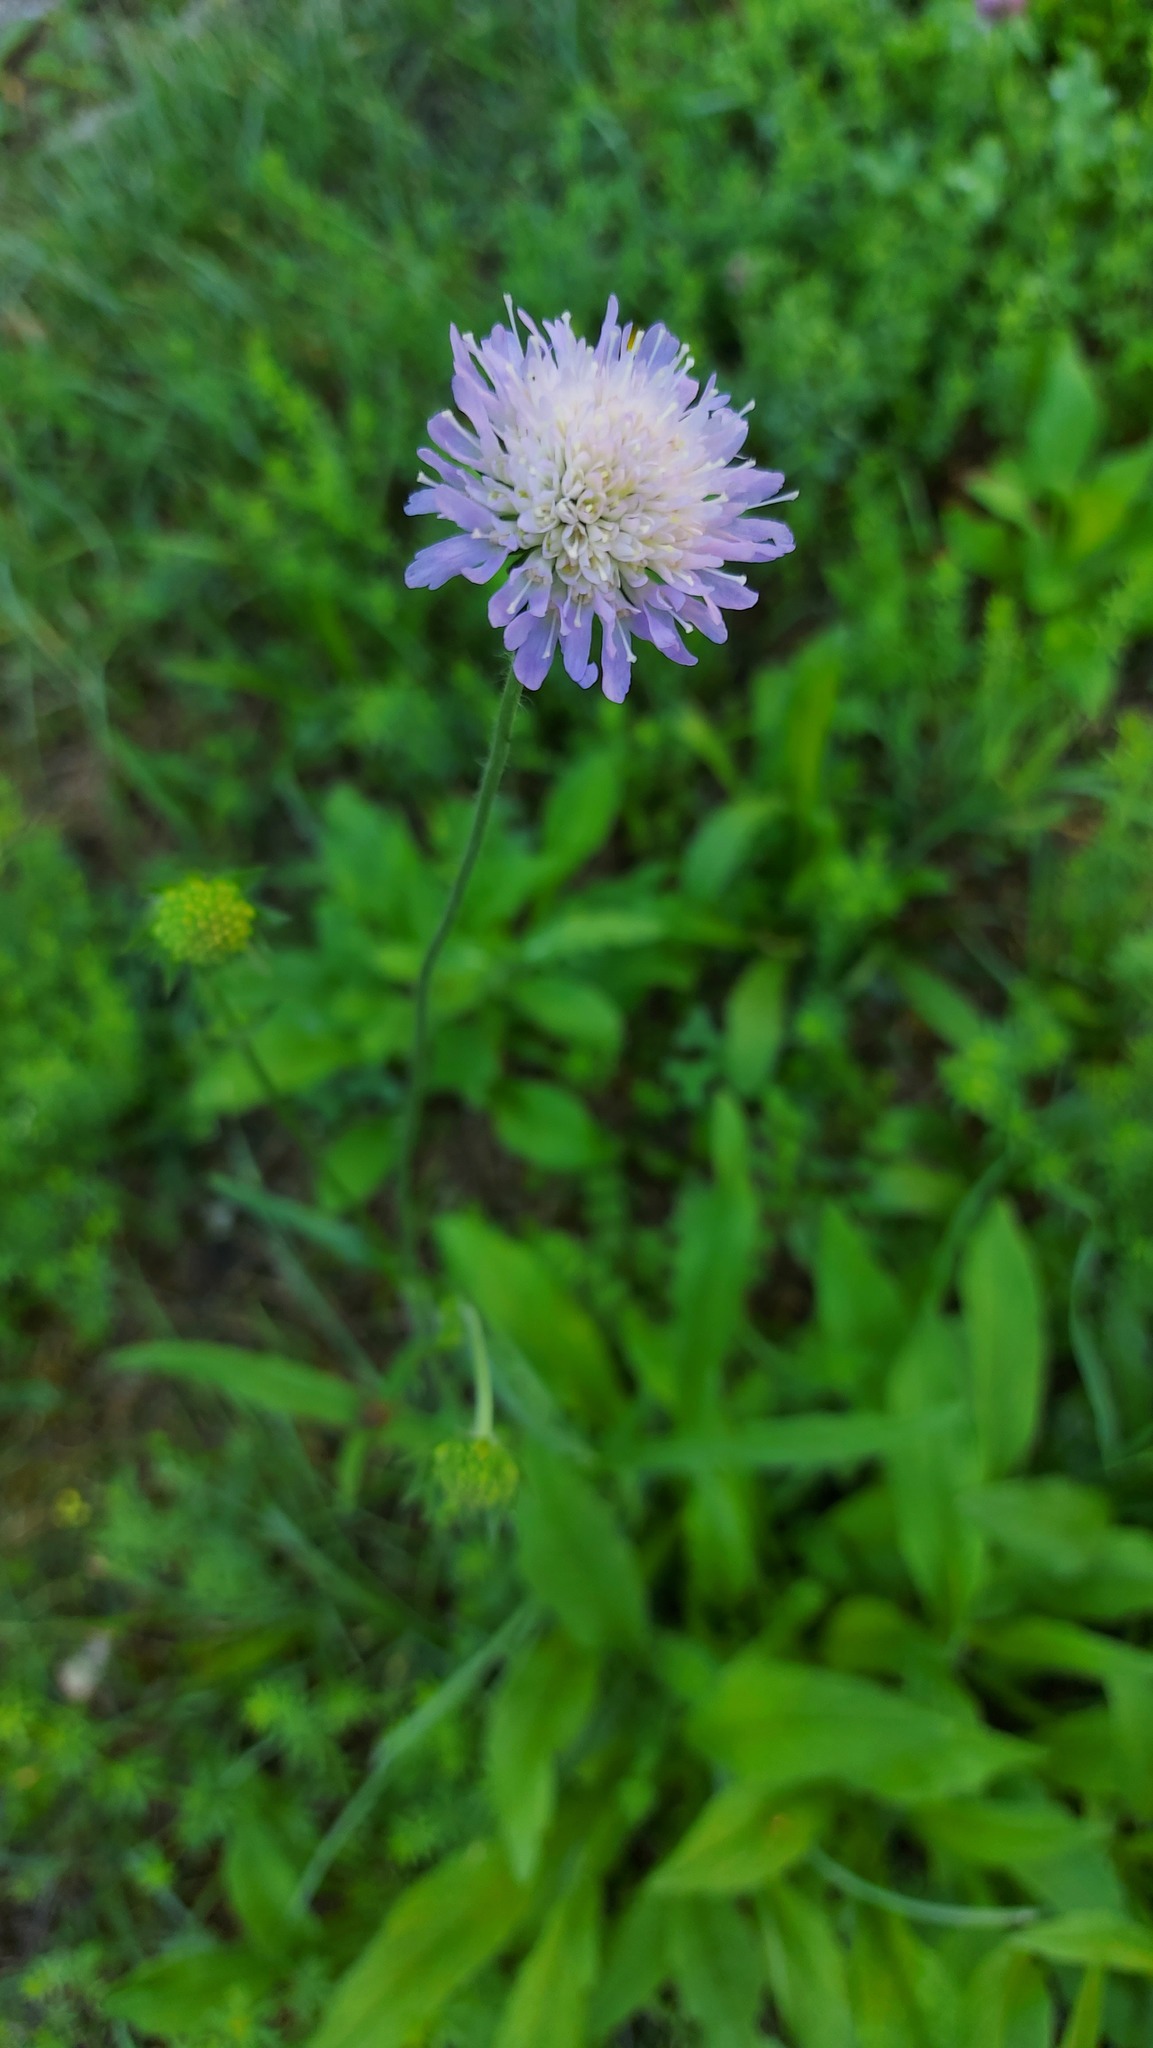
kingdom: Plantae
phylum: Tracheophyta
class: Magnoliopsida
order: Dipsacales
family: Caprifoliaceae
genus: Knautia
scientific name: Knautia arvensis
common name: Field scabiosa
